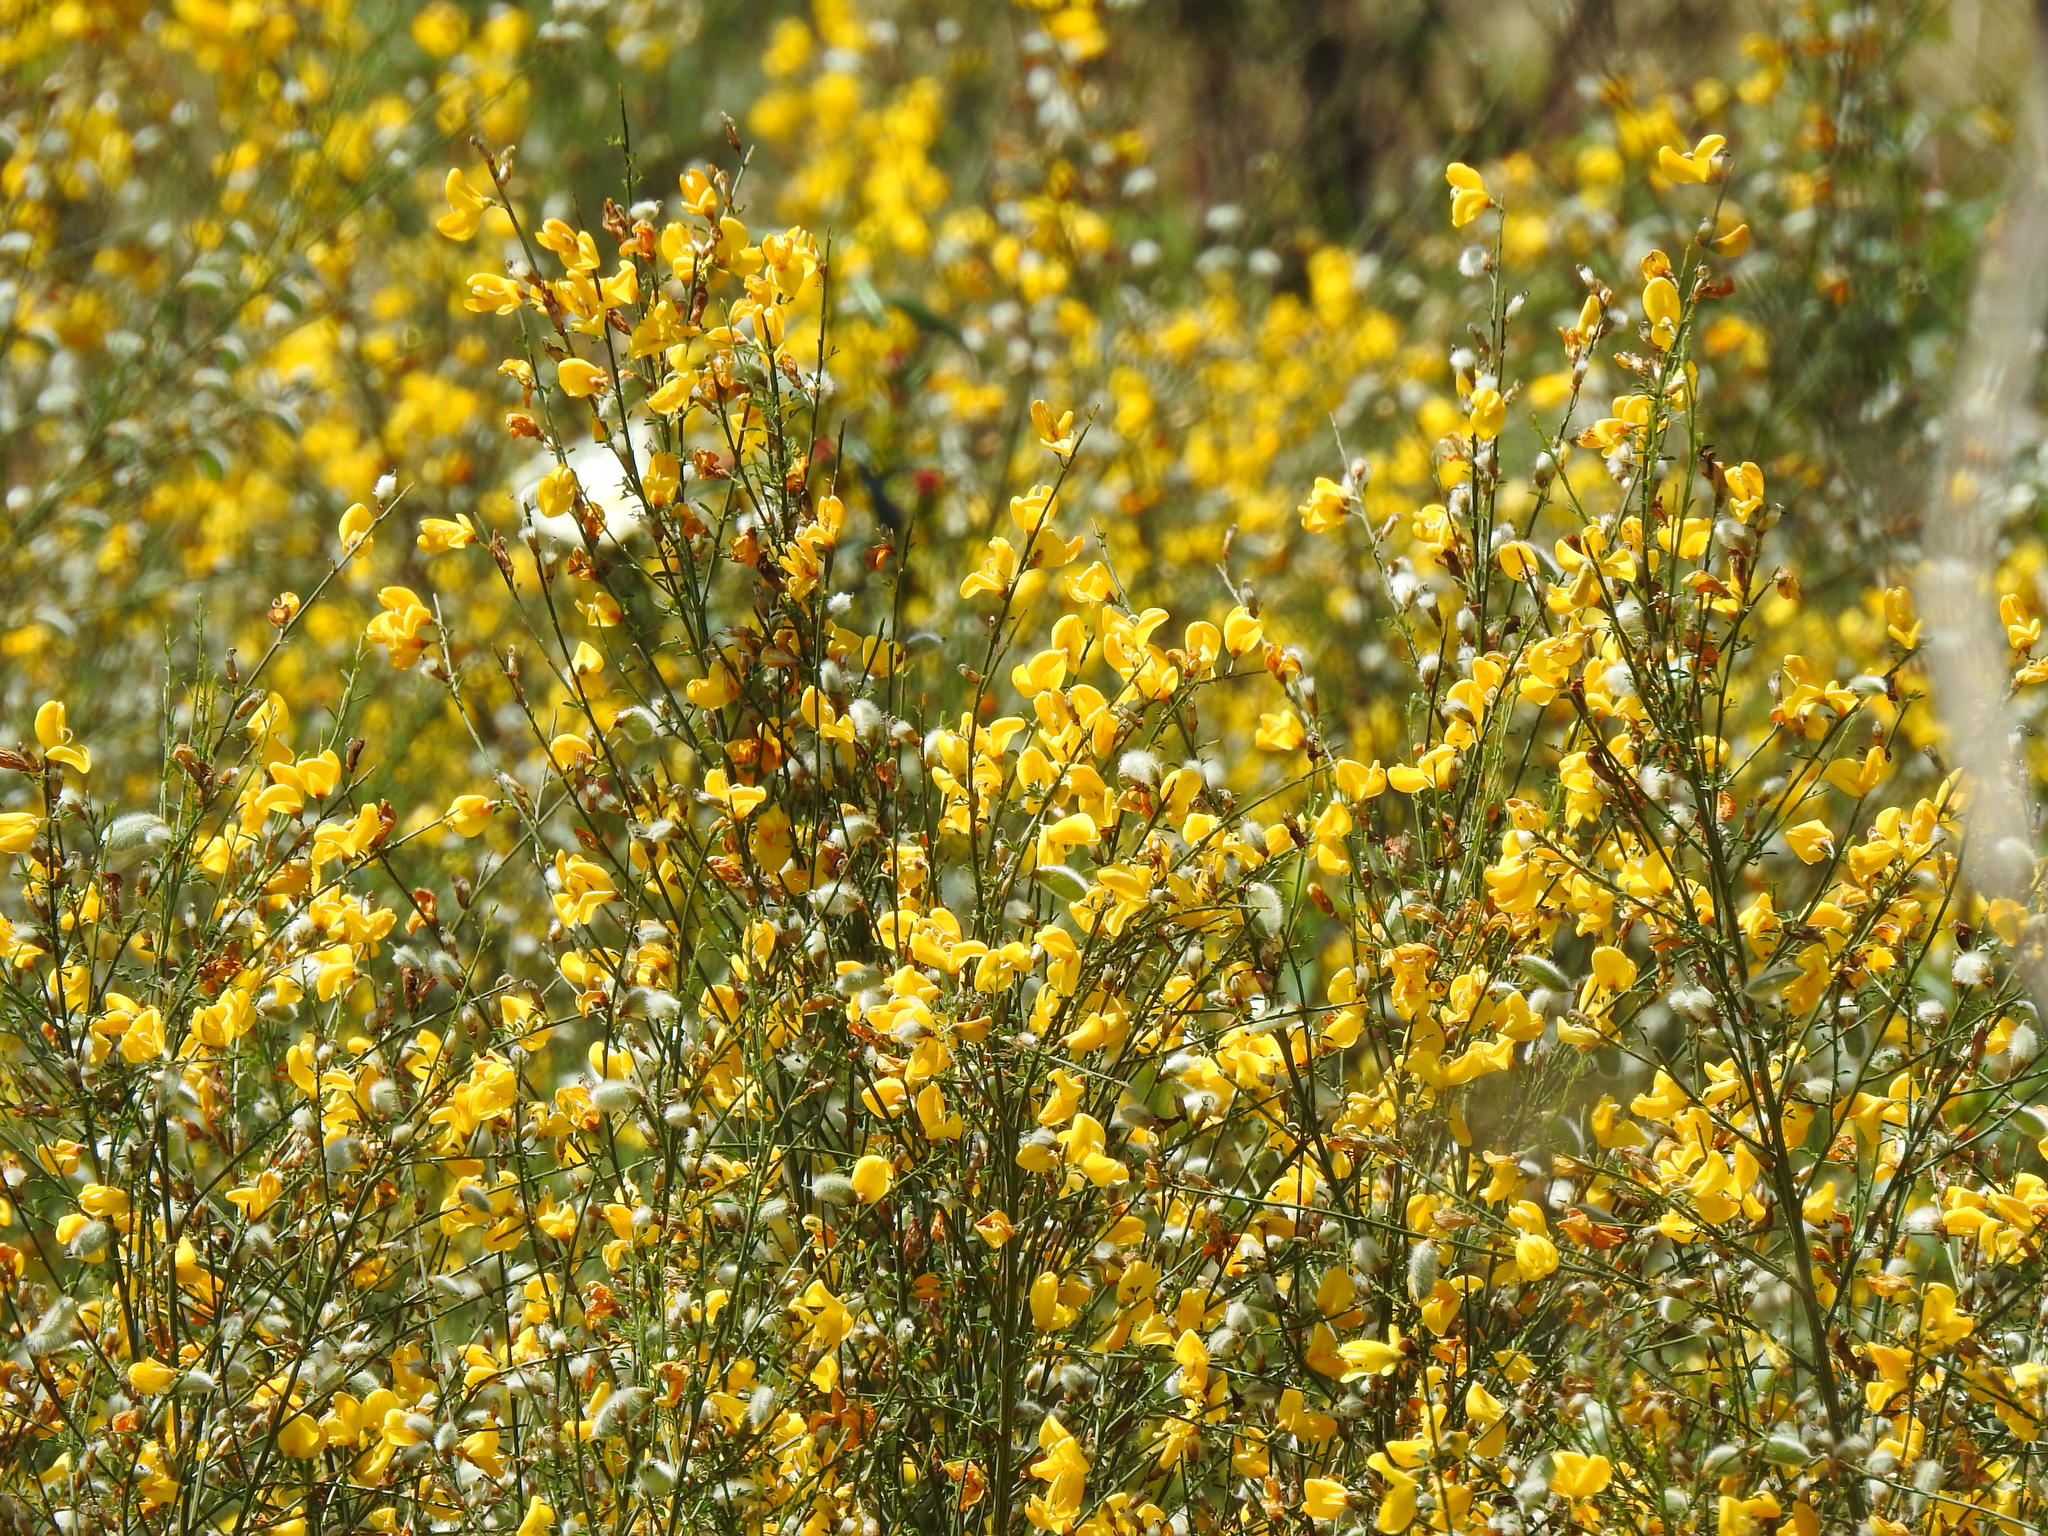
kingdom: Plantae
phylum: Tracheophyta
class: Magnoliopsida
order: Fabales
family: Fabaceae
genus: Cytisus
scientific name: Cytisus striatus
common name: Hairy-fruited broom
